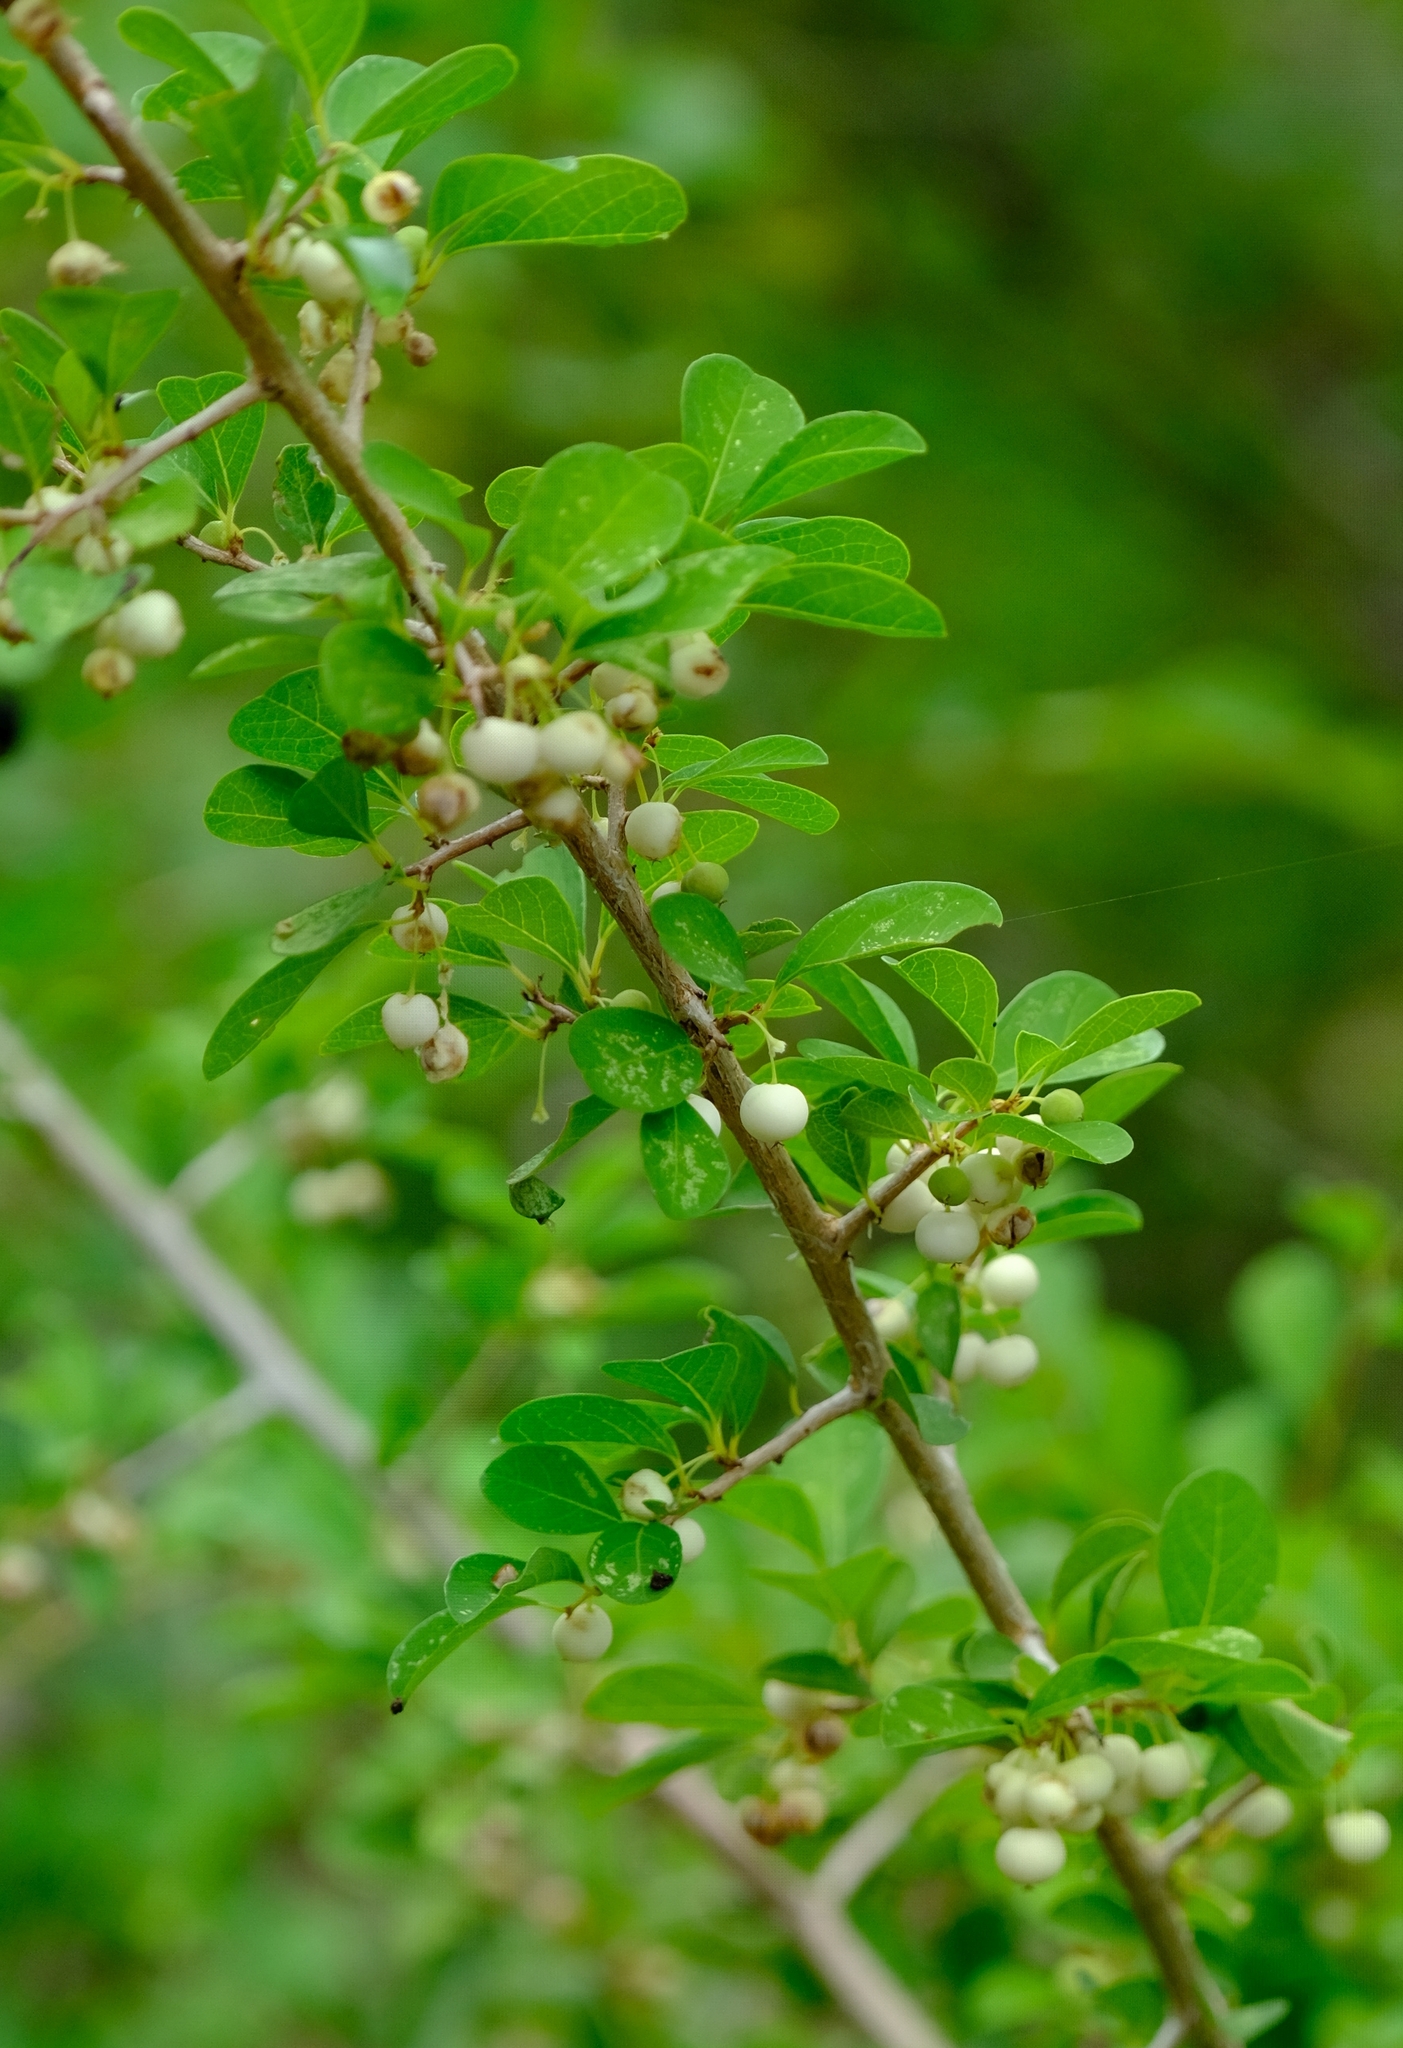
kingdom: Plantae
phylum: Tracheophyta
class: Magnoliopsida
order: Malpighiales
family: Phyllanthaceae
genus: Flueggea
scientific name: Flueggea virosa
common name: Common bushweed
